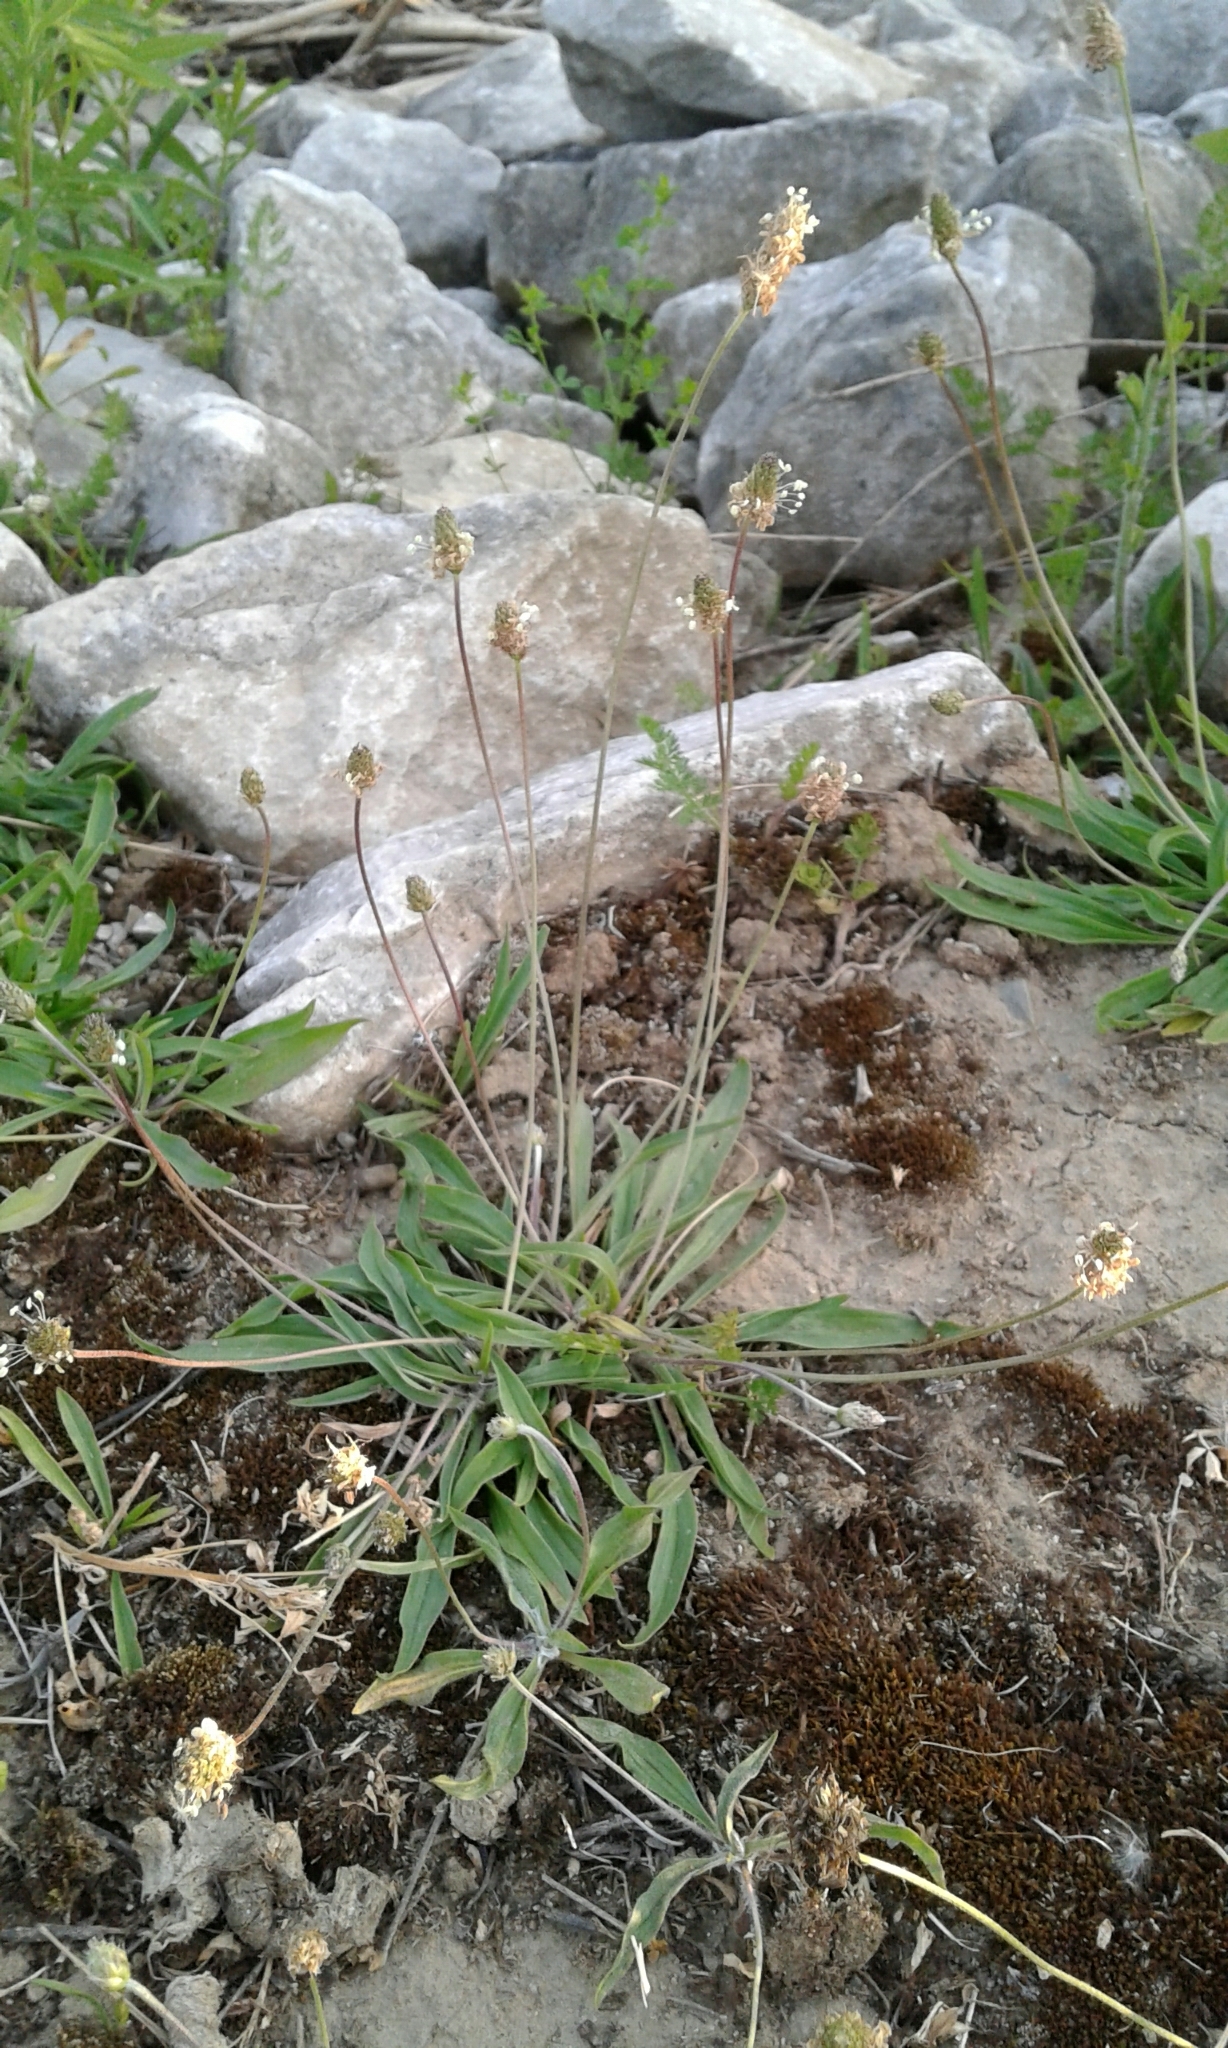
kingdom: Plantae
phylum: Tracheophyta
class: Magnoliopsida
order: Lamiales
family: Plantaginaceae
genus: Plantago
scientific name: Plantago lanceolata
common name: Ribwort plantain
